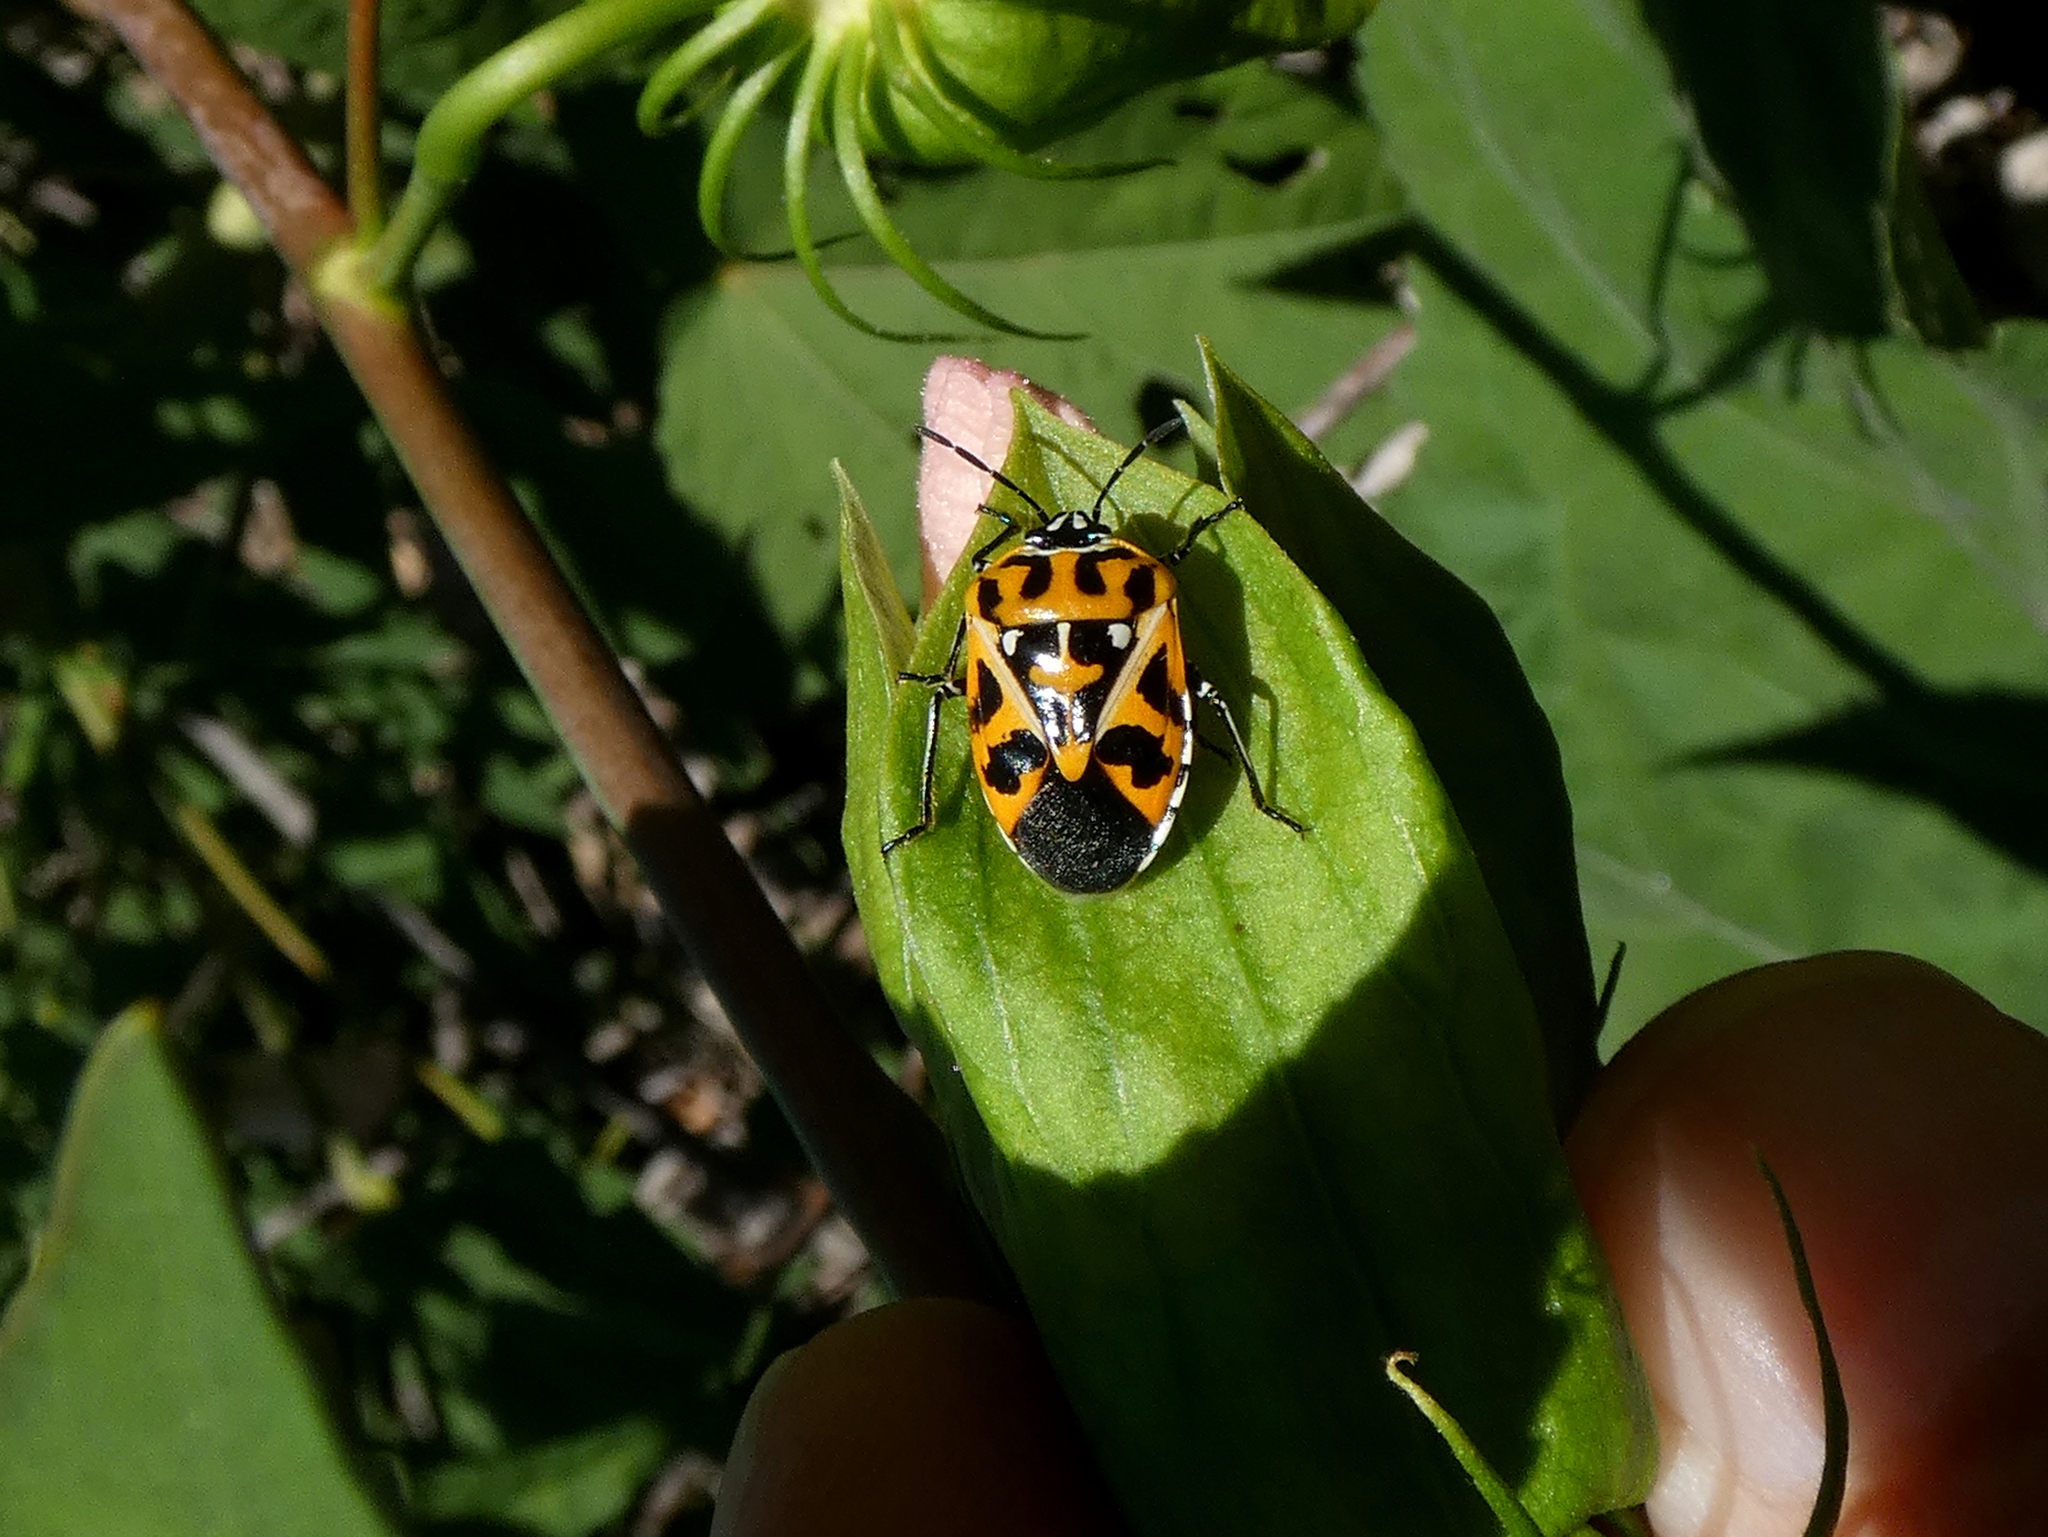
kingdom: Animalia
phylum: Arthropoda
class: Insecta
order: Hemiptera
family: Pentatomidae
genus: Murgantia
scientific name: Murgantia histrionica
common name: Harlequin bug
